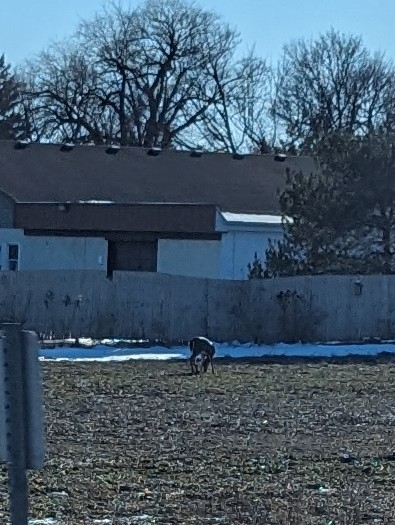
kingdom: Animalia
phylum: Chordata
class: Mammalia
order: Artiodactyla
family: Cervidae
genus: Odocoileus
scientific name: Odocoileus virginianus
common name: White-tailed deer
